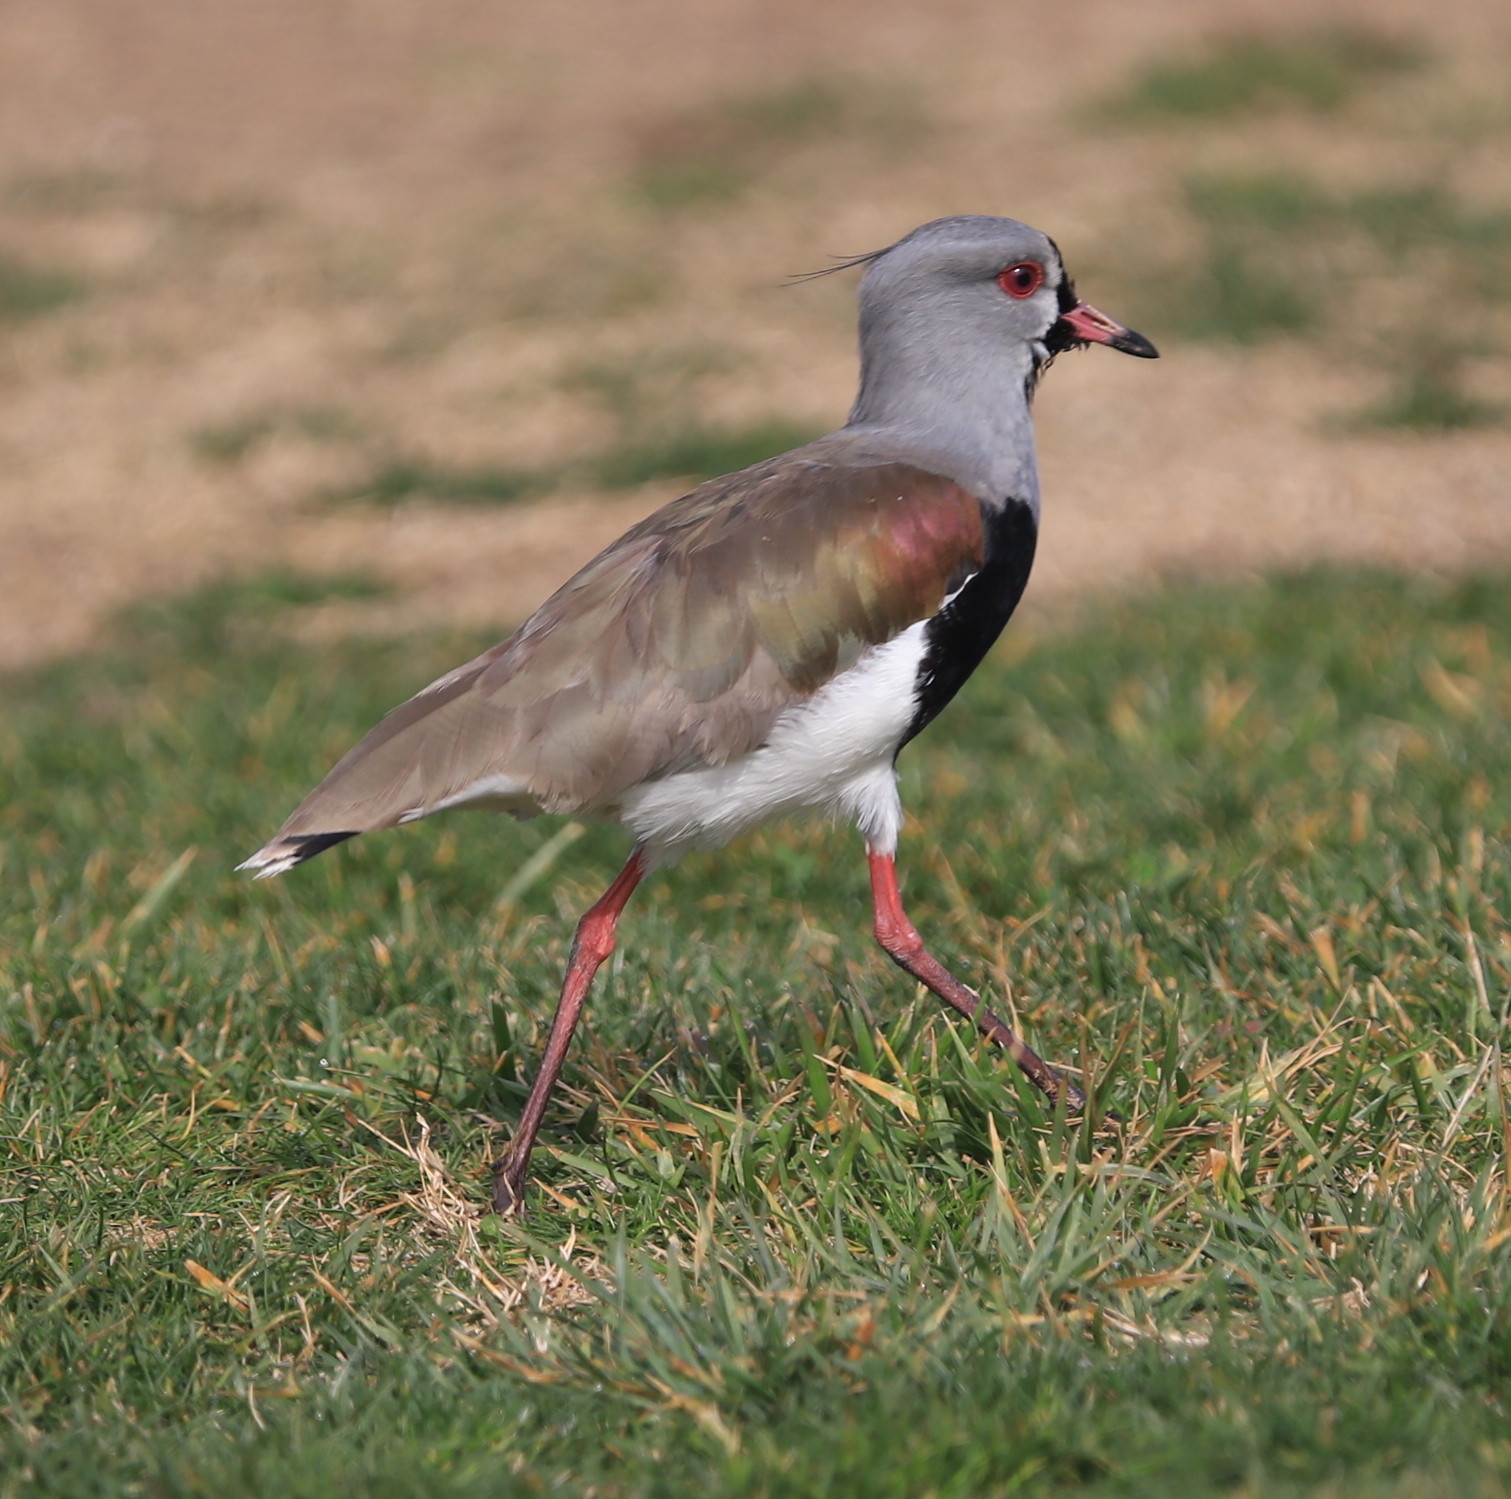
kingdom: Animalia
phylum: Chordata
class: Aves
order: Charadriiformes
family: Charadriidae
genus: Vanellus
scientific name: Vanellus chilensis
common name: Southern lapwing
